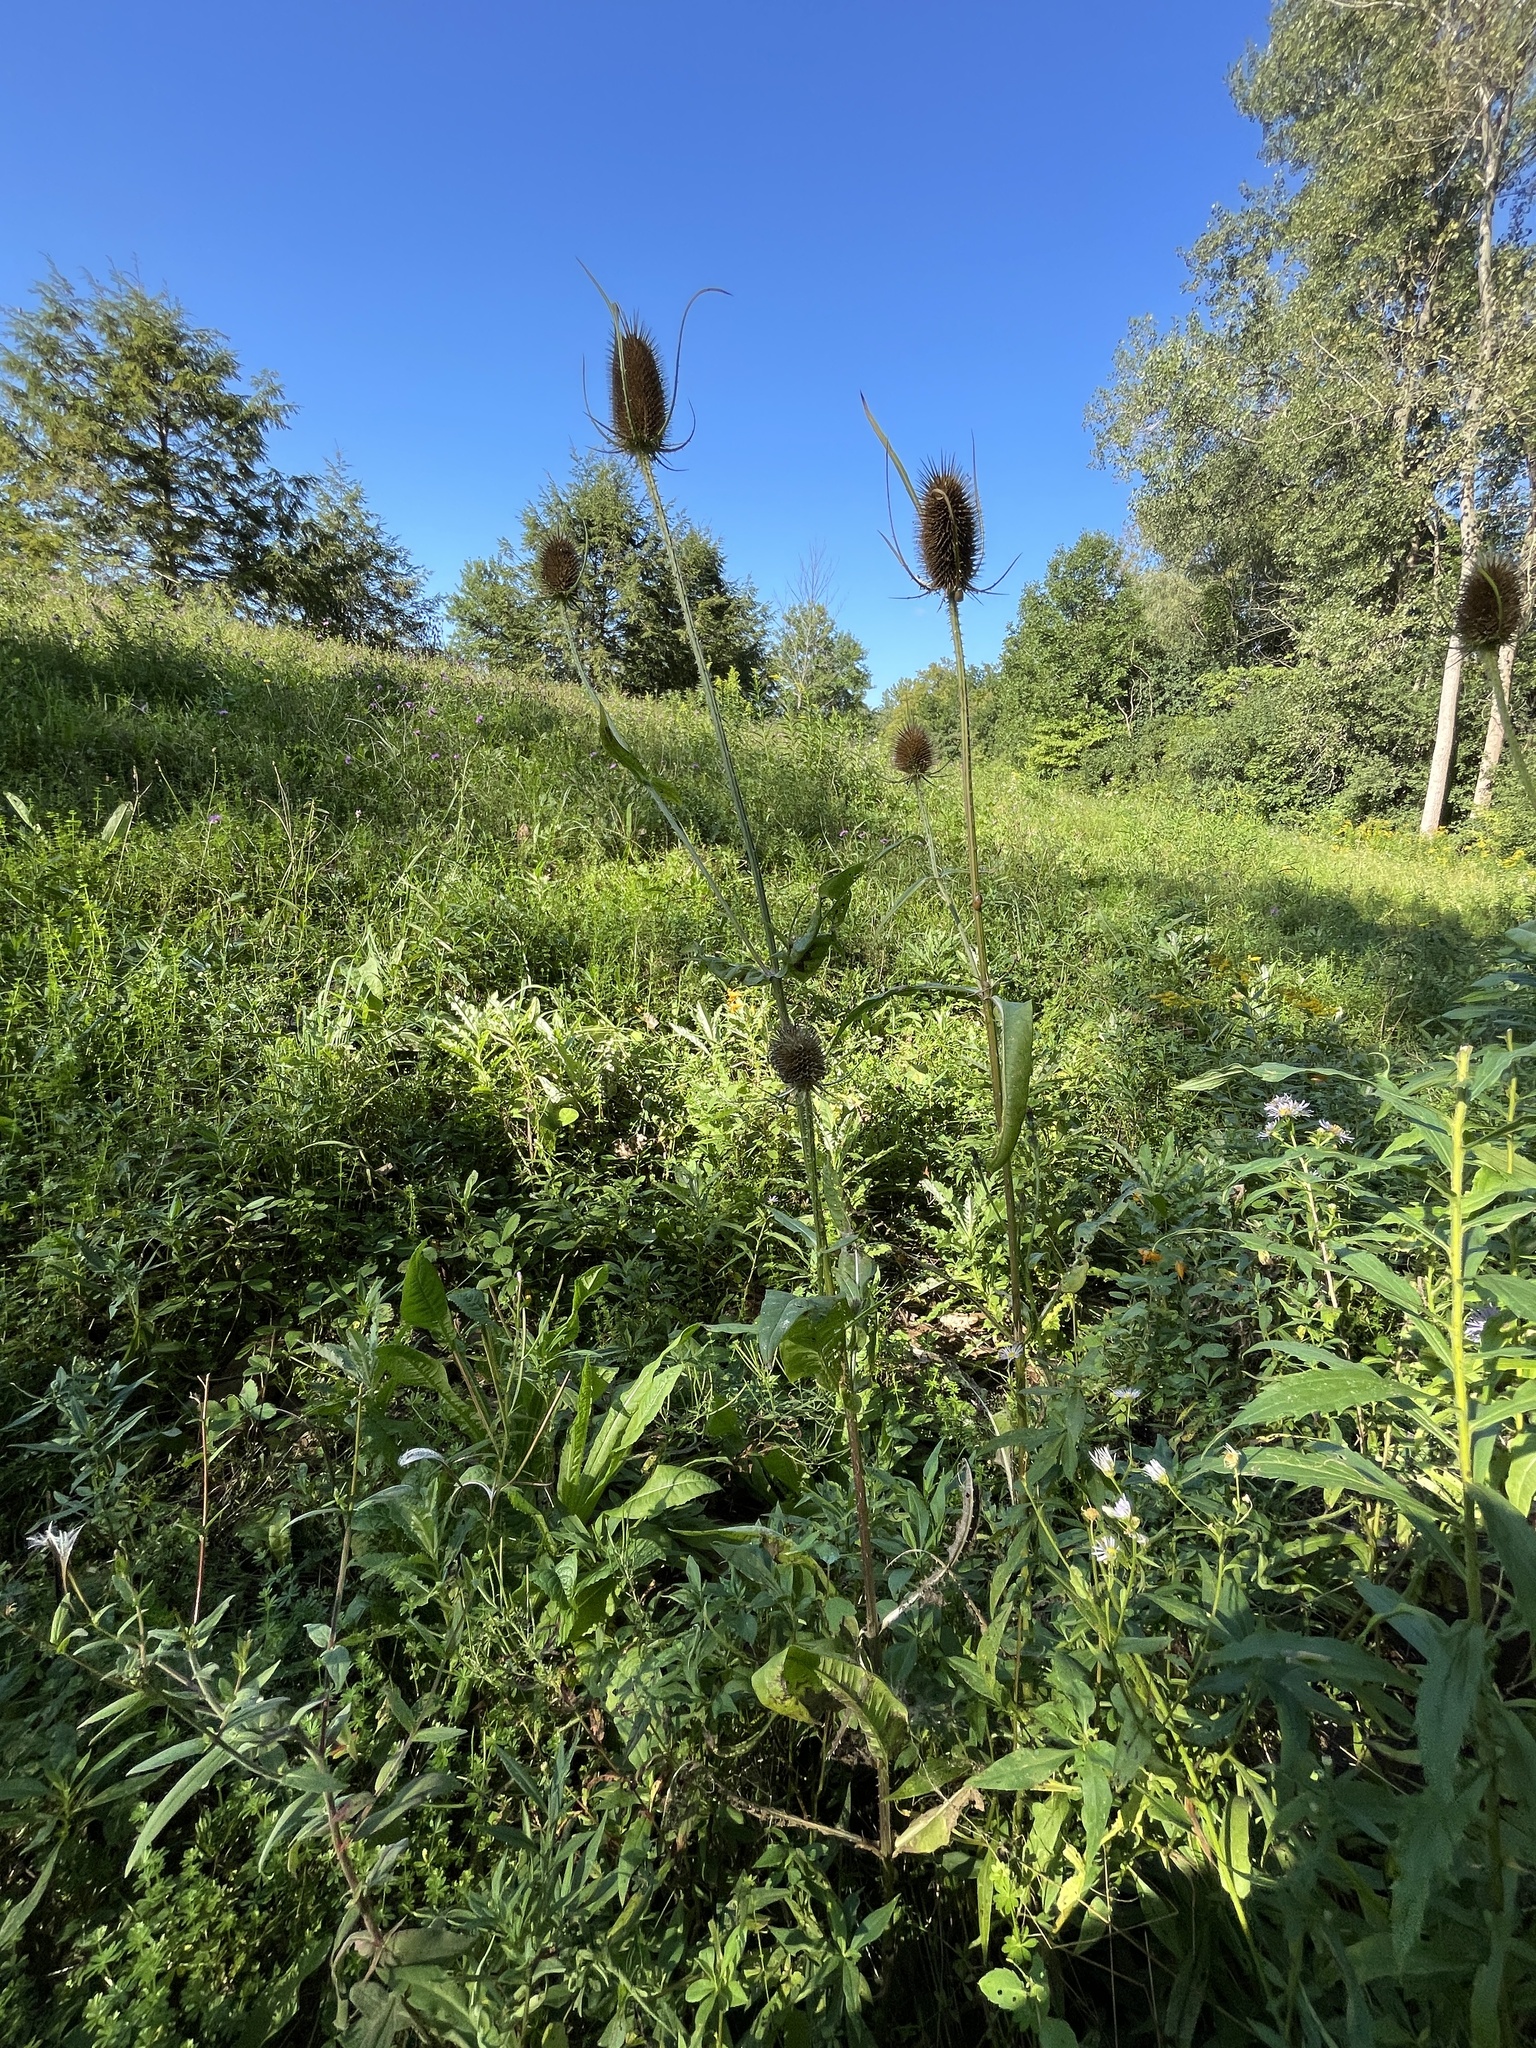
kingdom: Plantae
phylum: Tracheophyta
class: Magnoliopsida
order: Dipsacales
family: Caprifoliaceae
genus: Dipsacus
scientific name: Dipsacus fullonum
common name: Teasel
